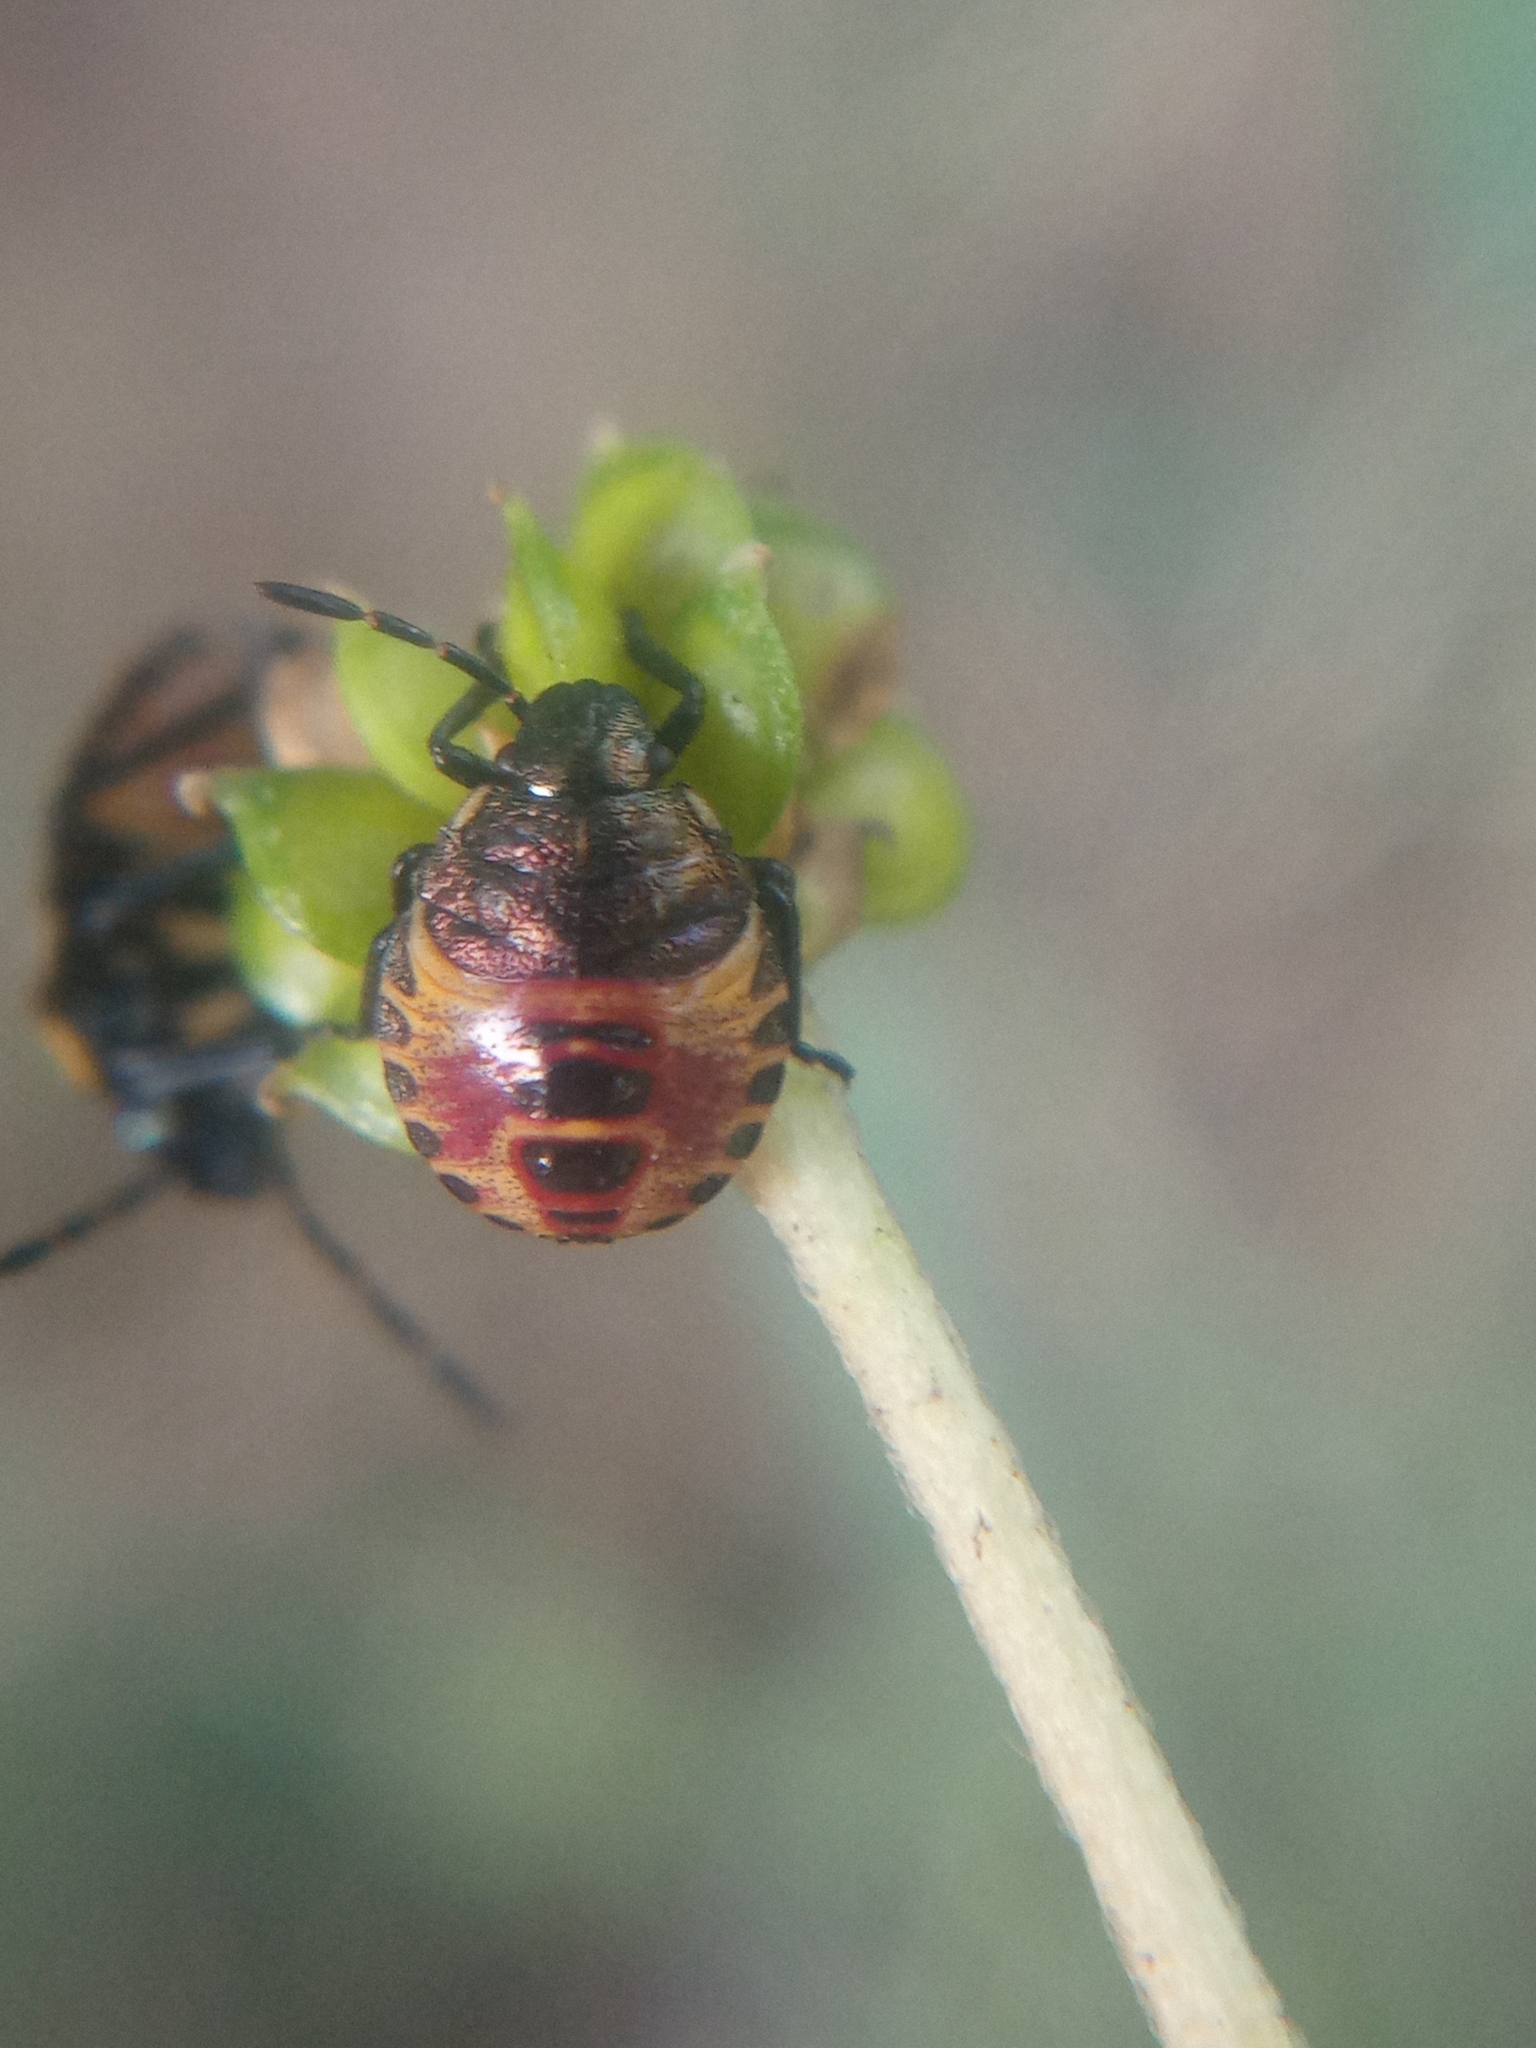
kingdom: Animalia
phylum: Arthropoda
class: Insecta
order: Hemiptera
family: Pentatomidae
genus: Carpocoris
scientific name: Carpocoris
